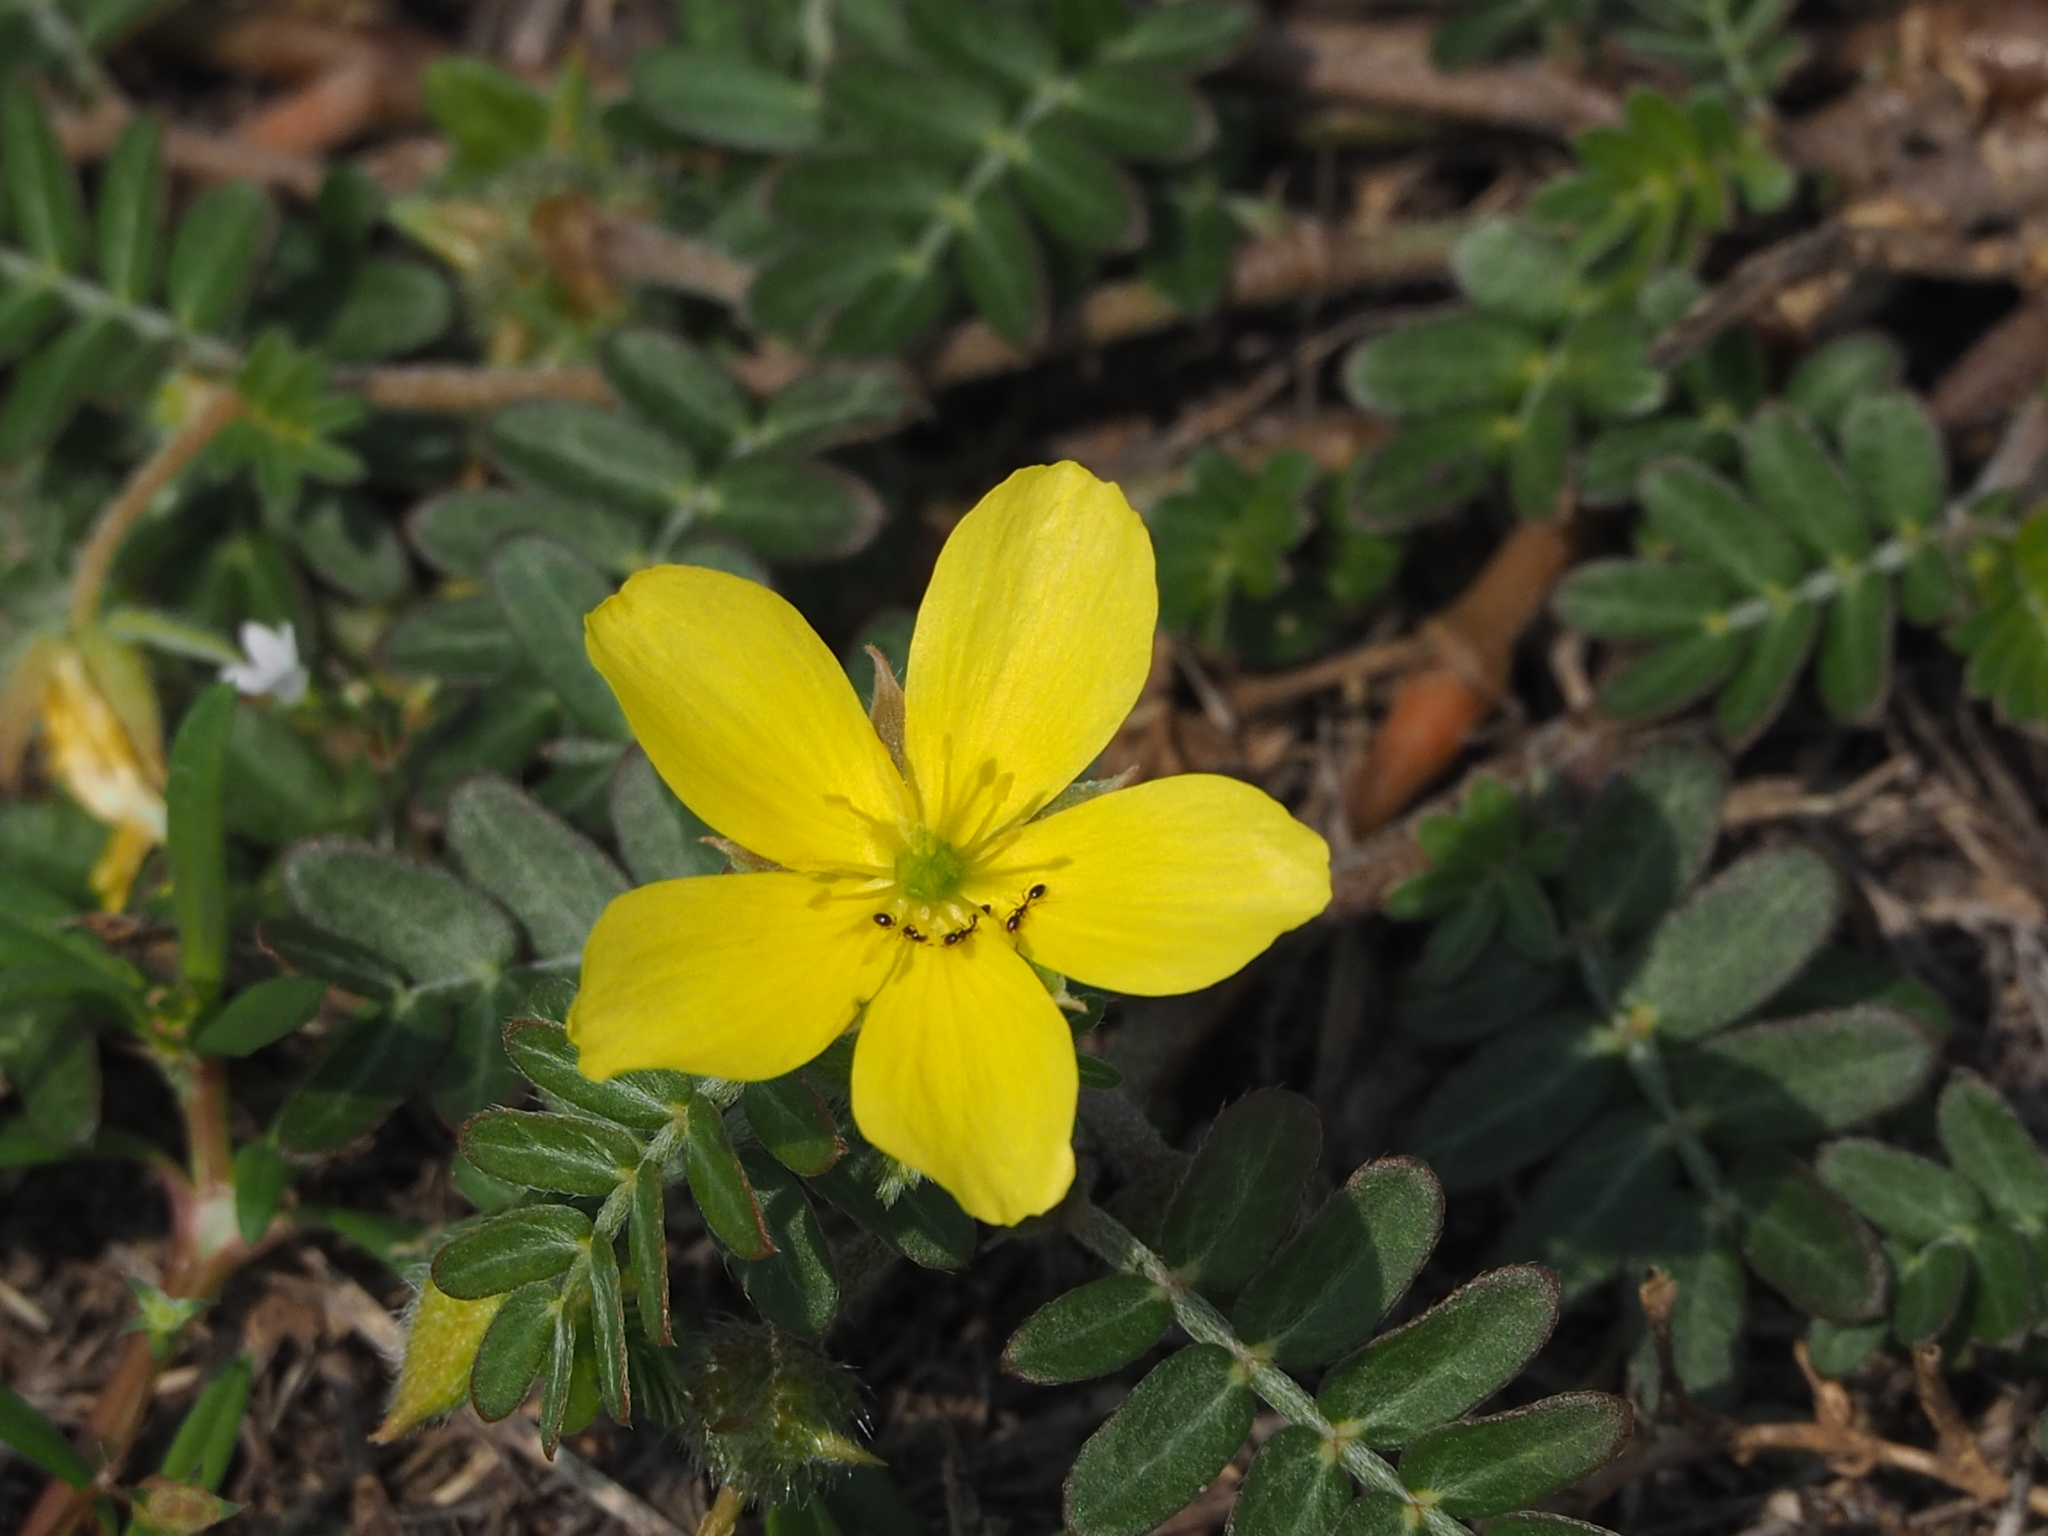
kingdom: Plantae
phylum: Tracheophyta
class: Magnoliopsida
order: Zygophyllales
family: Zygophyllaceae
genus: Tribulus
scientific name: Tribulus cistoides
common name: Jamaican feverplant
